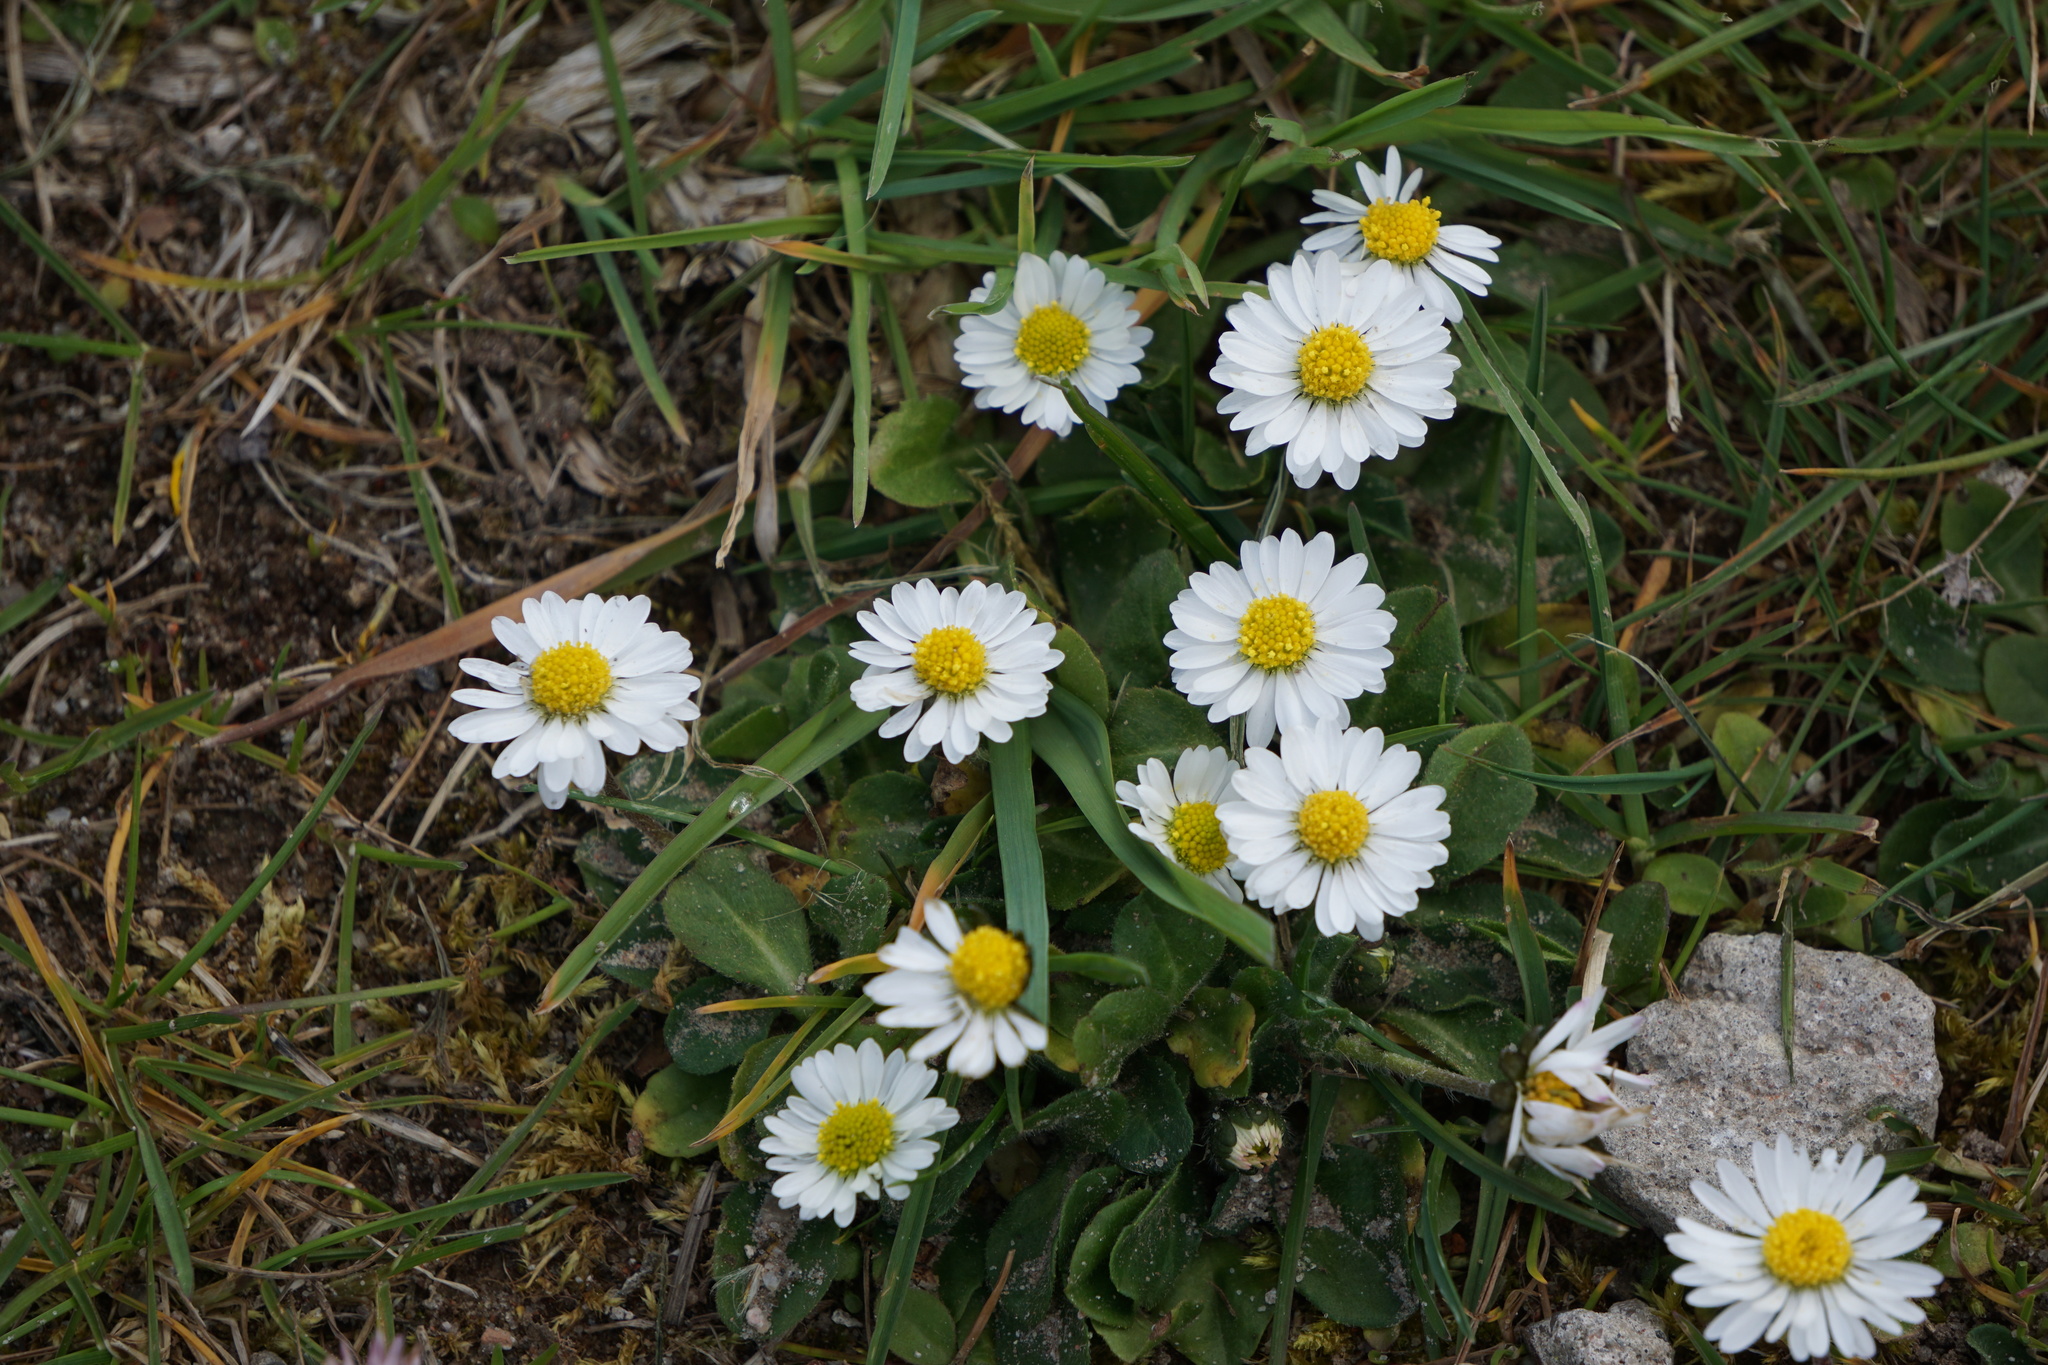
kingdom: Plantae
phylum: Tracheophyta
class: Magnoliopsida
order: Asterales
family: Asteraceae
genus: Bellis
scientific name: Bellis perennis
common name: Lawndaisy
